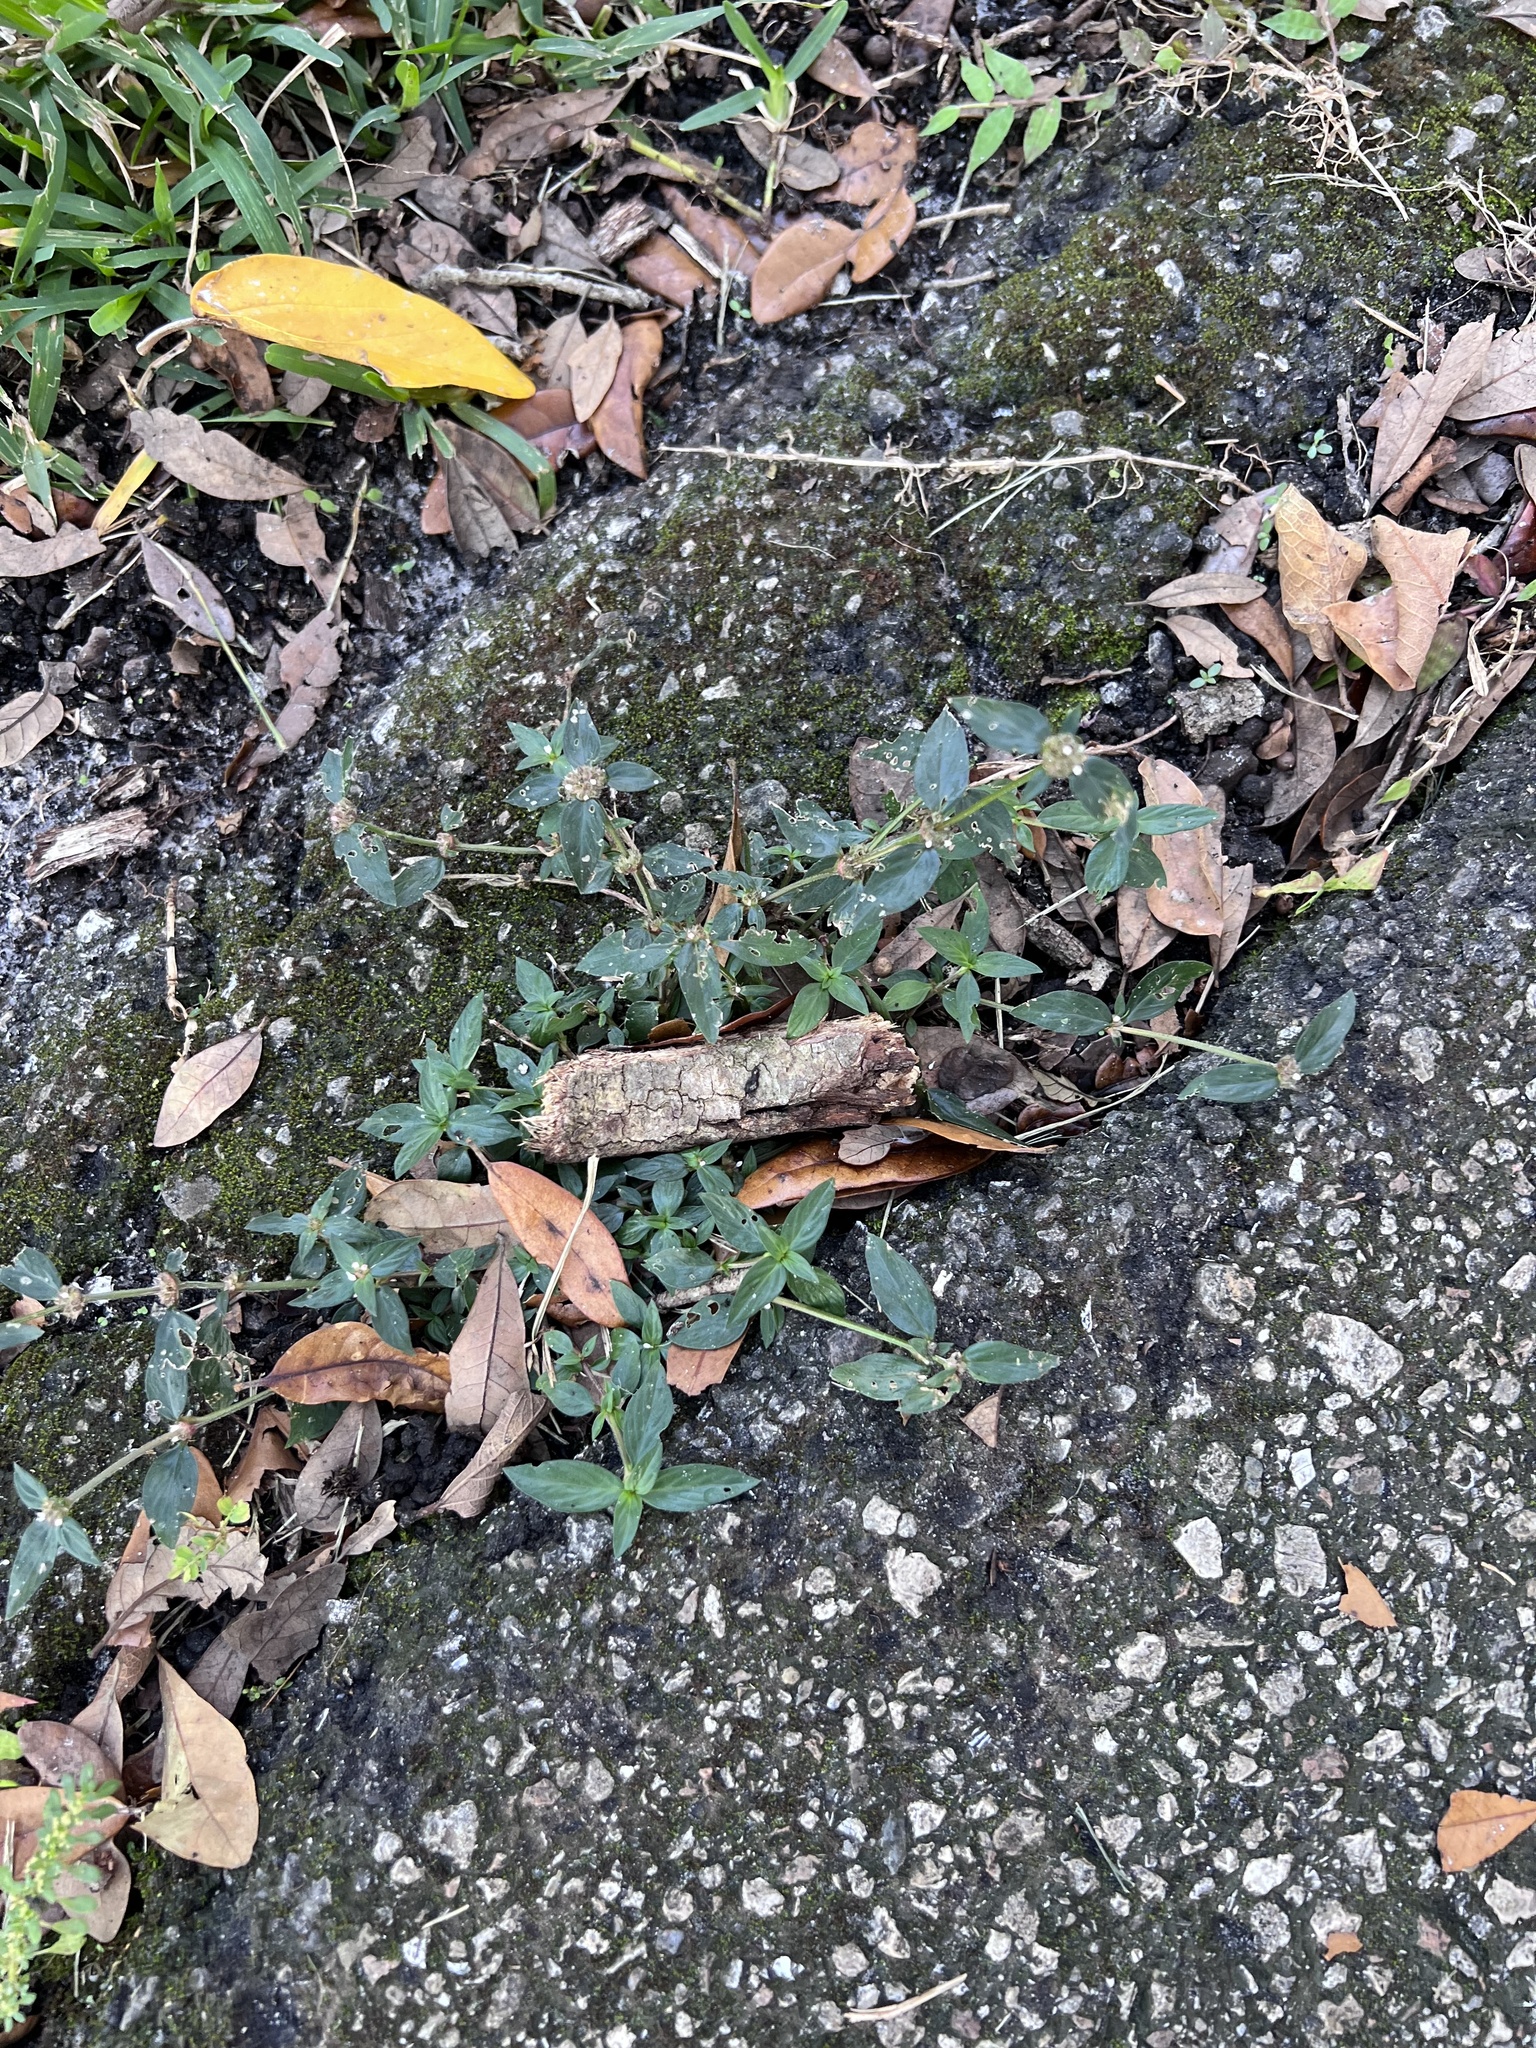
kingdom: Plantae
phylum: Tracheophyta
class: Magnoliopsida
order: Gentianales
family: Rubiaceae
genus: Spermacoce
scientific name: Spermacoce remota
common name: Woodland false buttonweed
